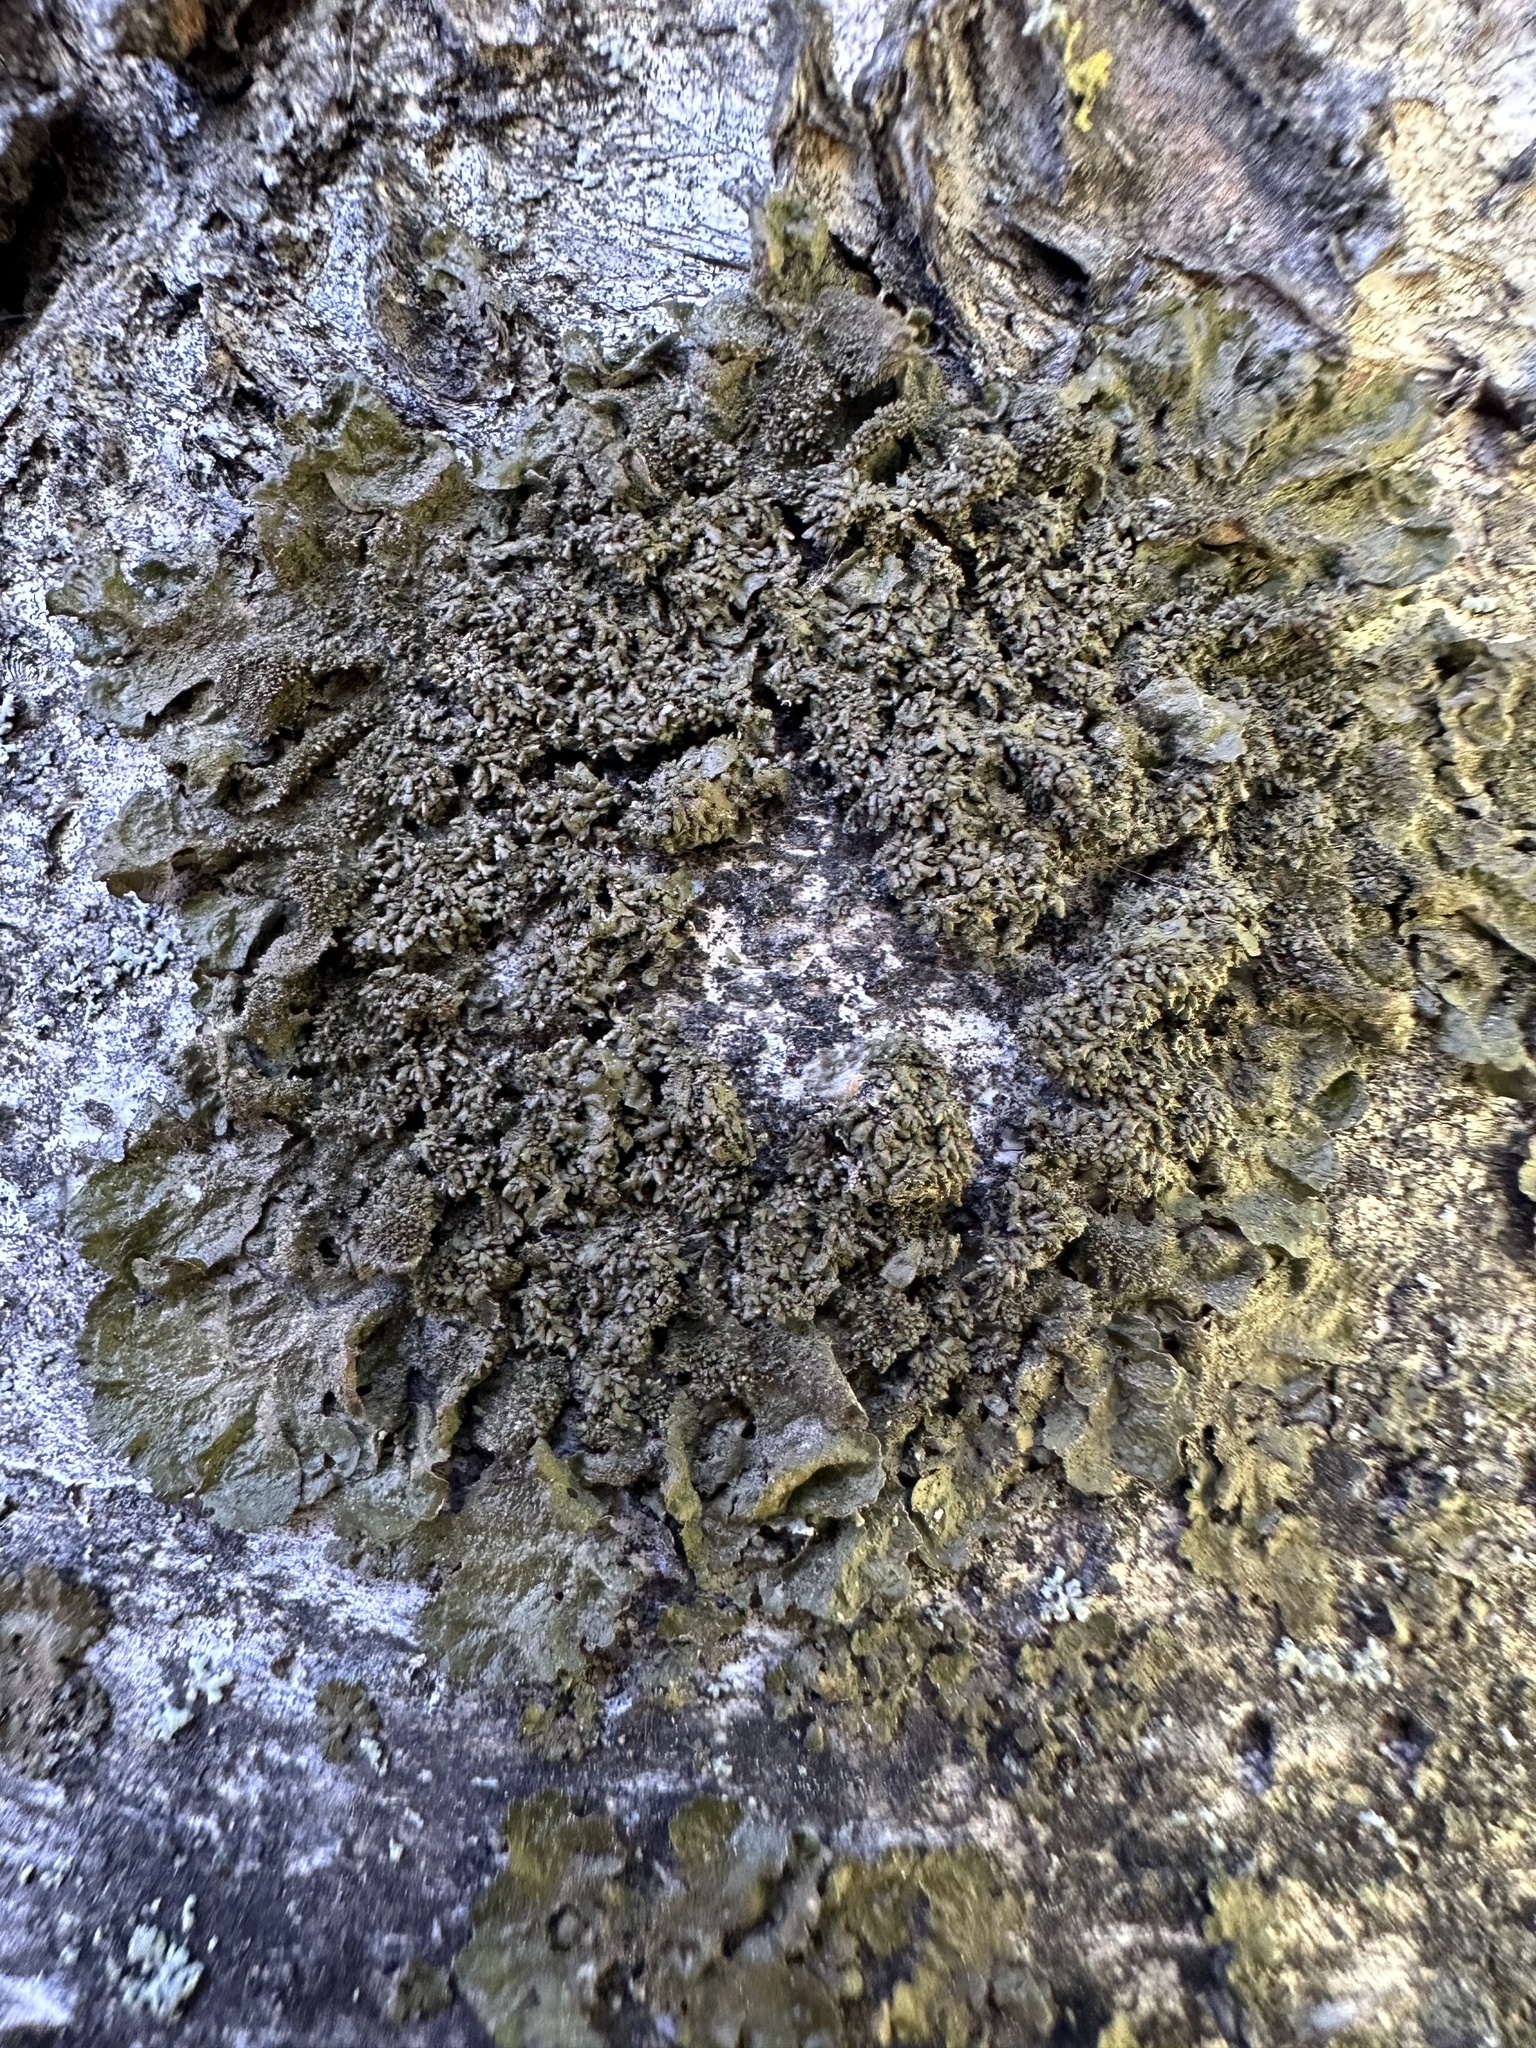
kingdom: Fungi
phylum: Ascomycota
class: Lecanoromycetes
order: Lecanorales
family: Parmeliaceae
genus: Melanohalea
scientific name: Melanohalea exasperatula
